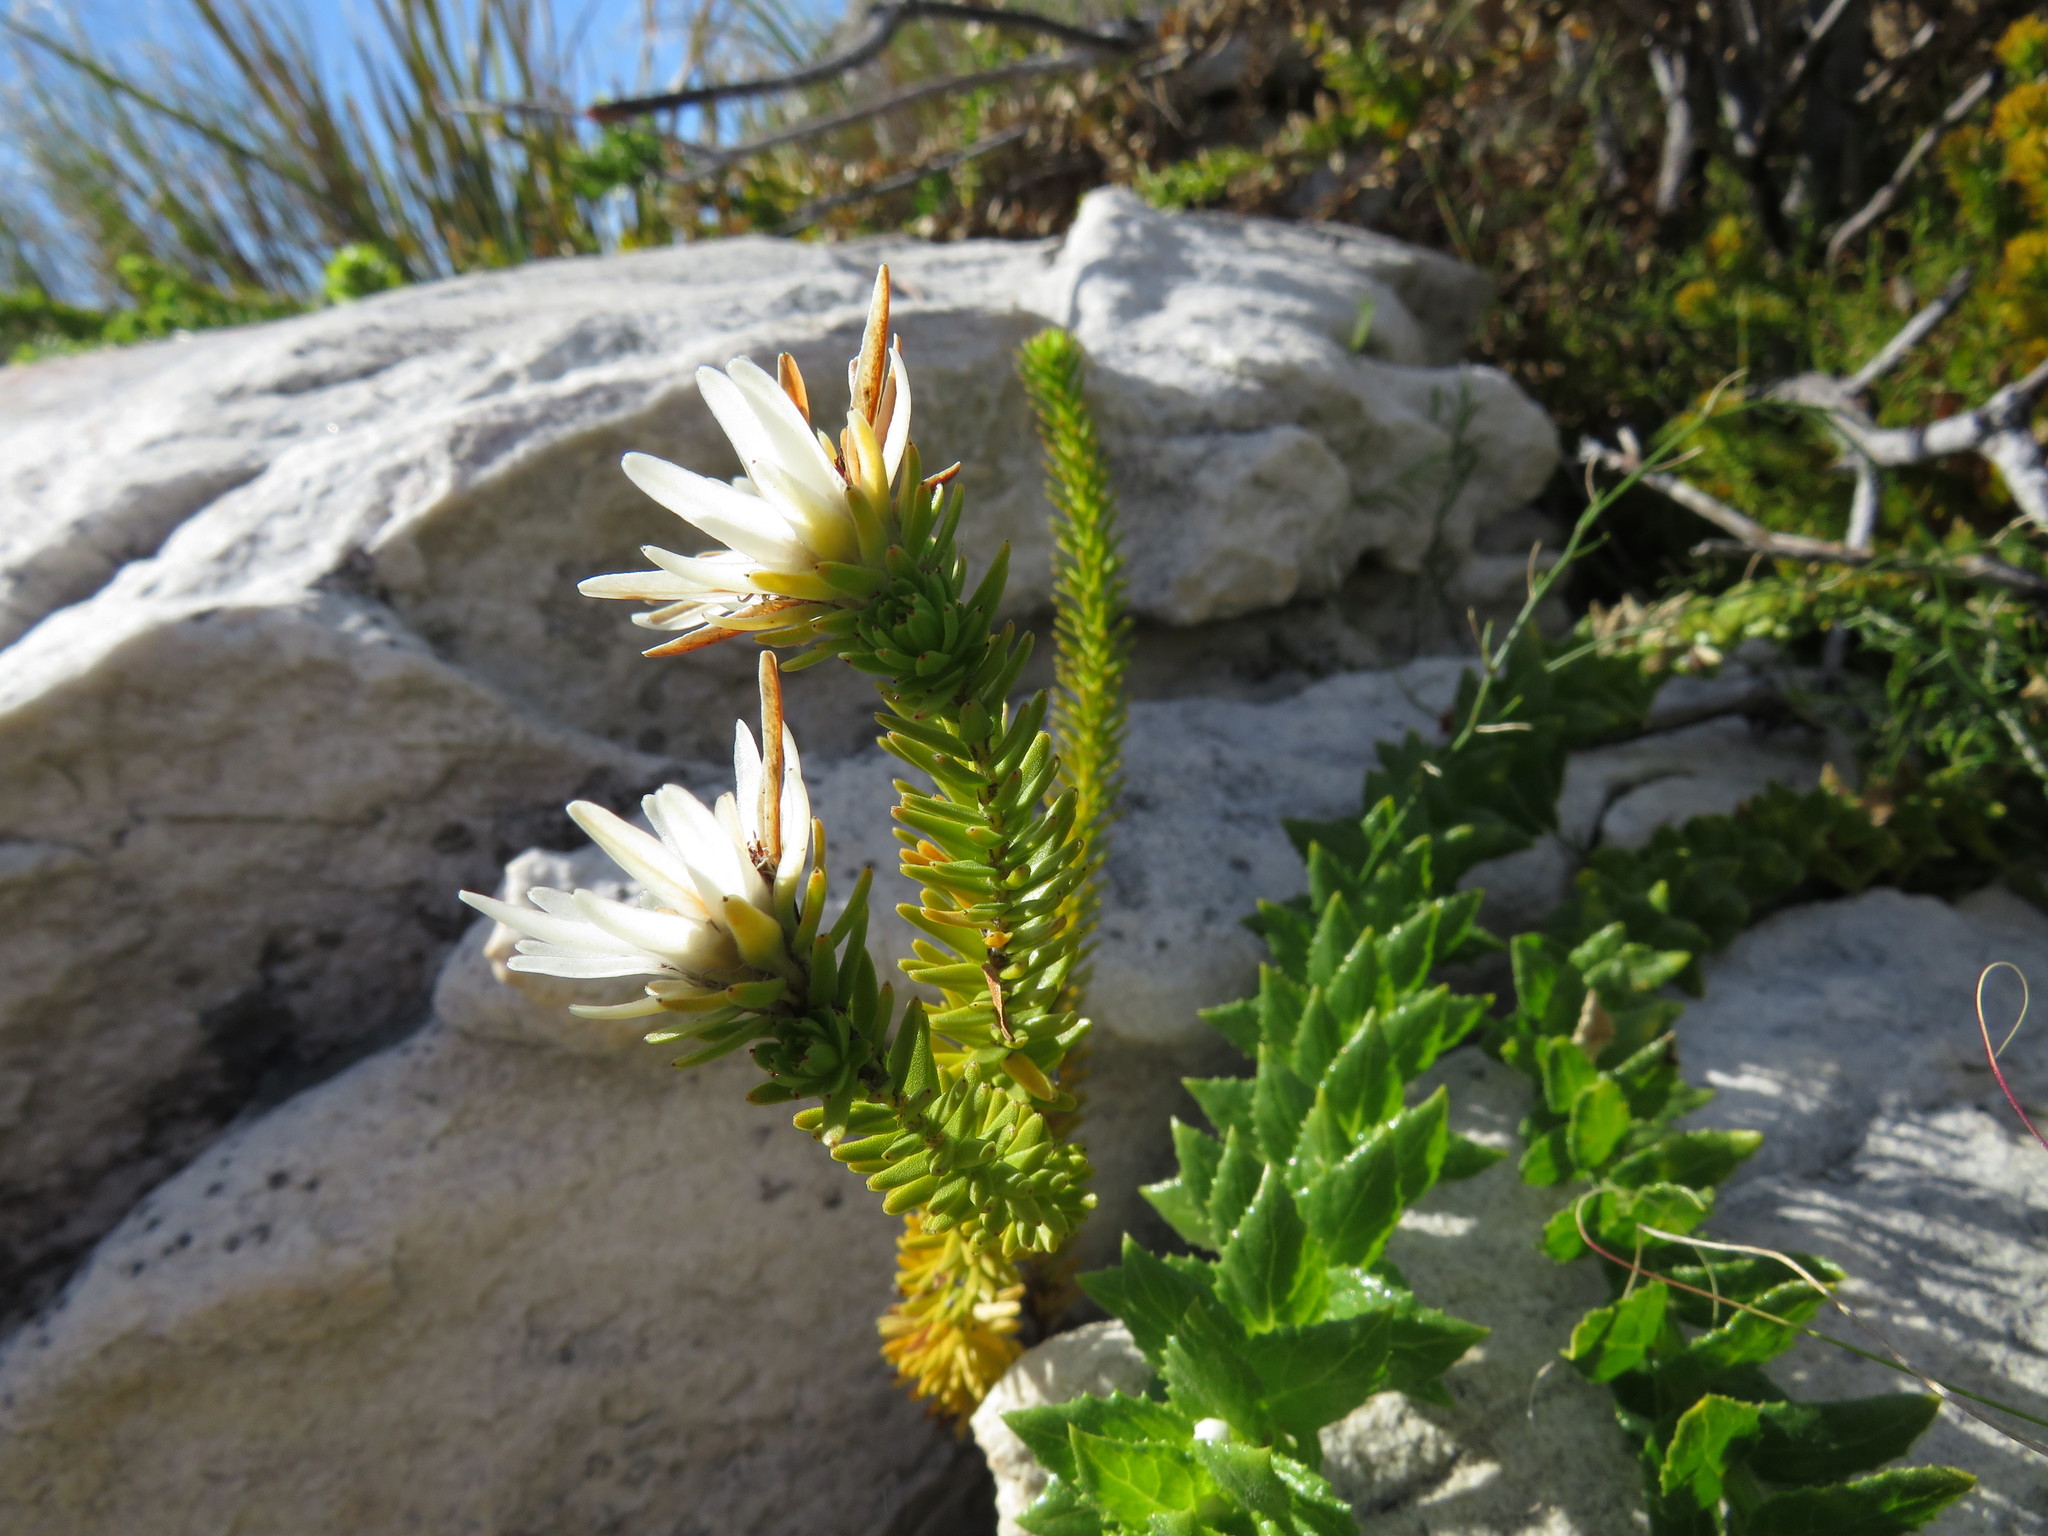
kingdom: Plantae
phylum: Tracheophyta
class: Magnoliopsida
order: Bruniales
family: Bruniaceae
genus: Staavia
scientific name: Staavia dodii
